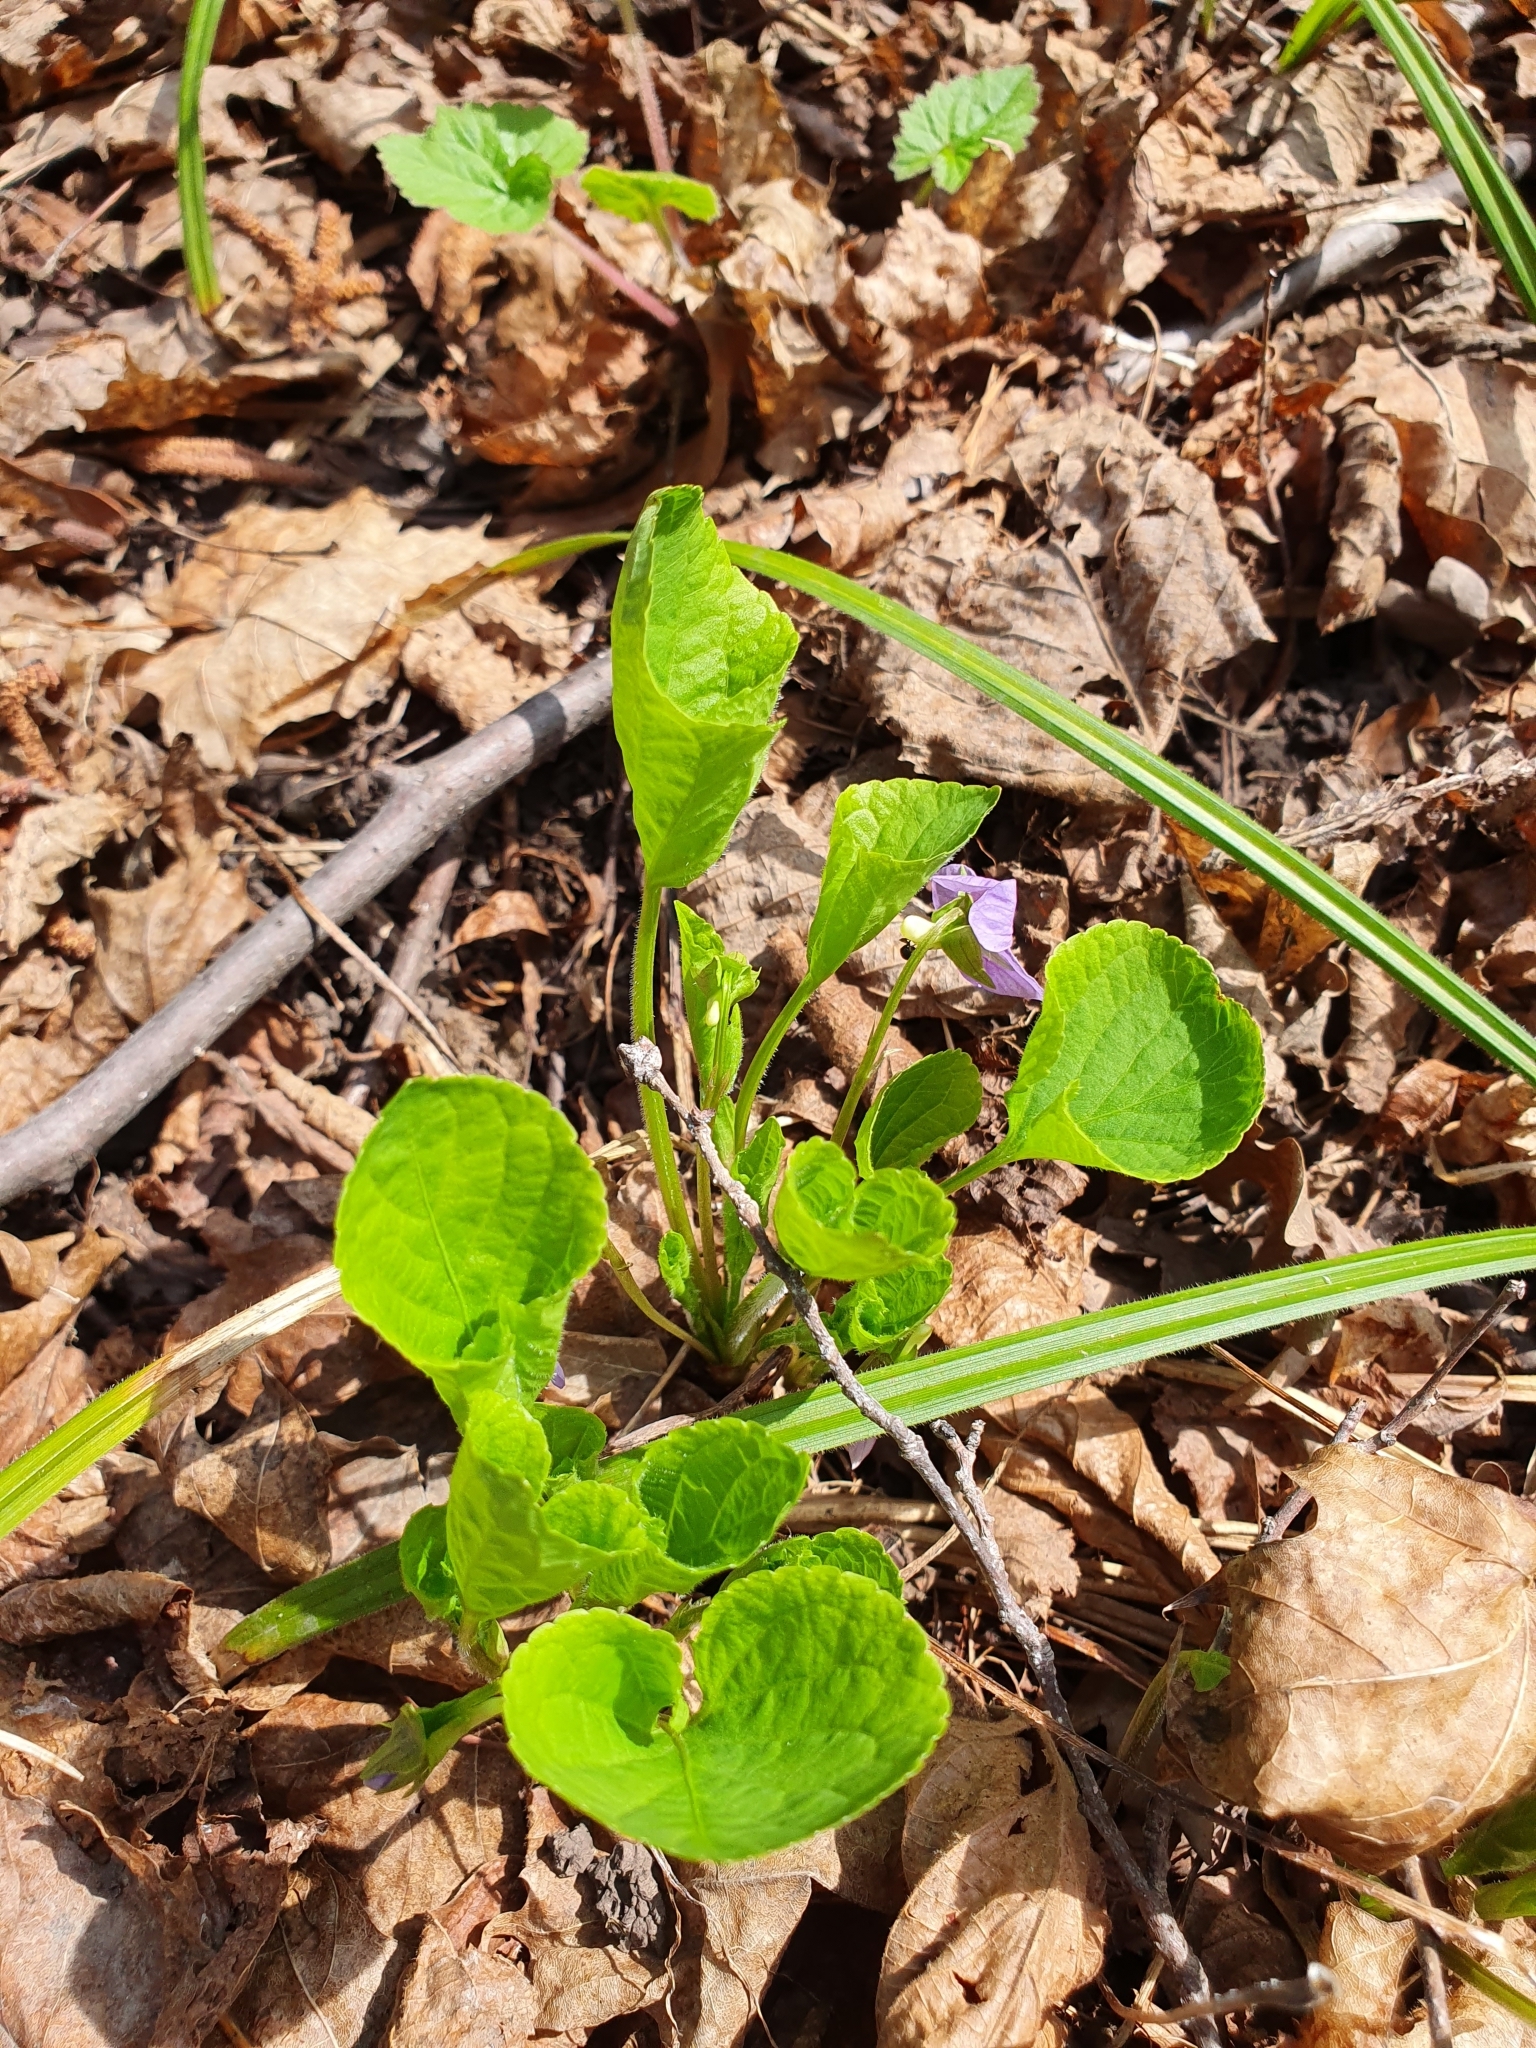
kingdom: Plantae
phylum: Tracheophyta
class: Magnoliopsida
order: Malpighiales
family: Violaceae
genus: Viola
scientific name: Viola mirabilis
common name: Wonder violet
